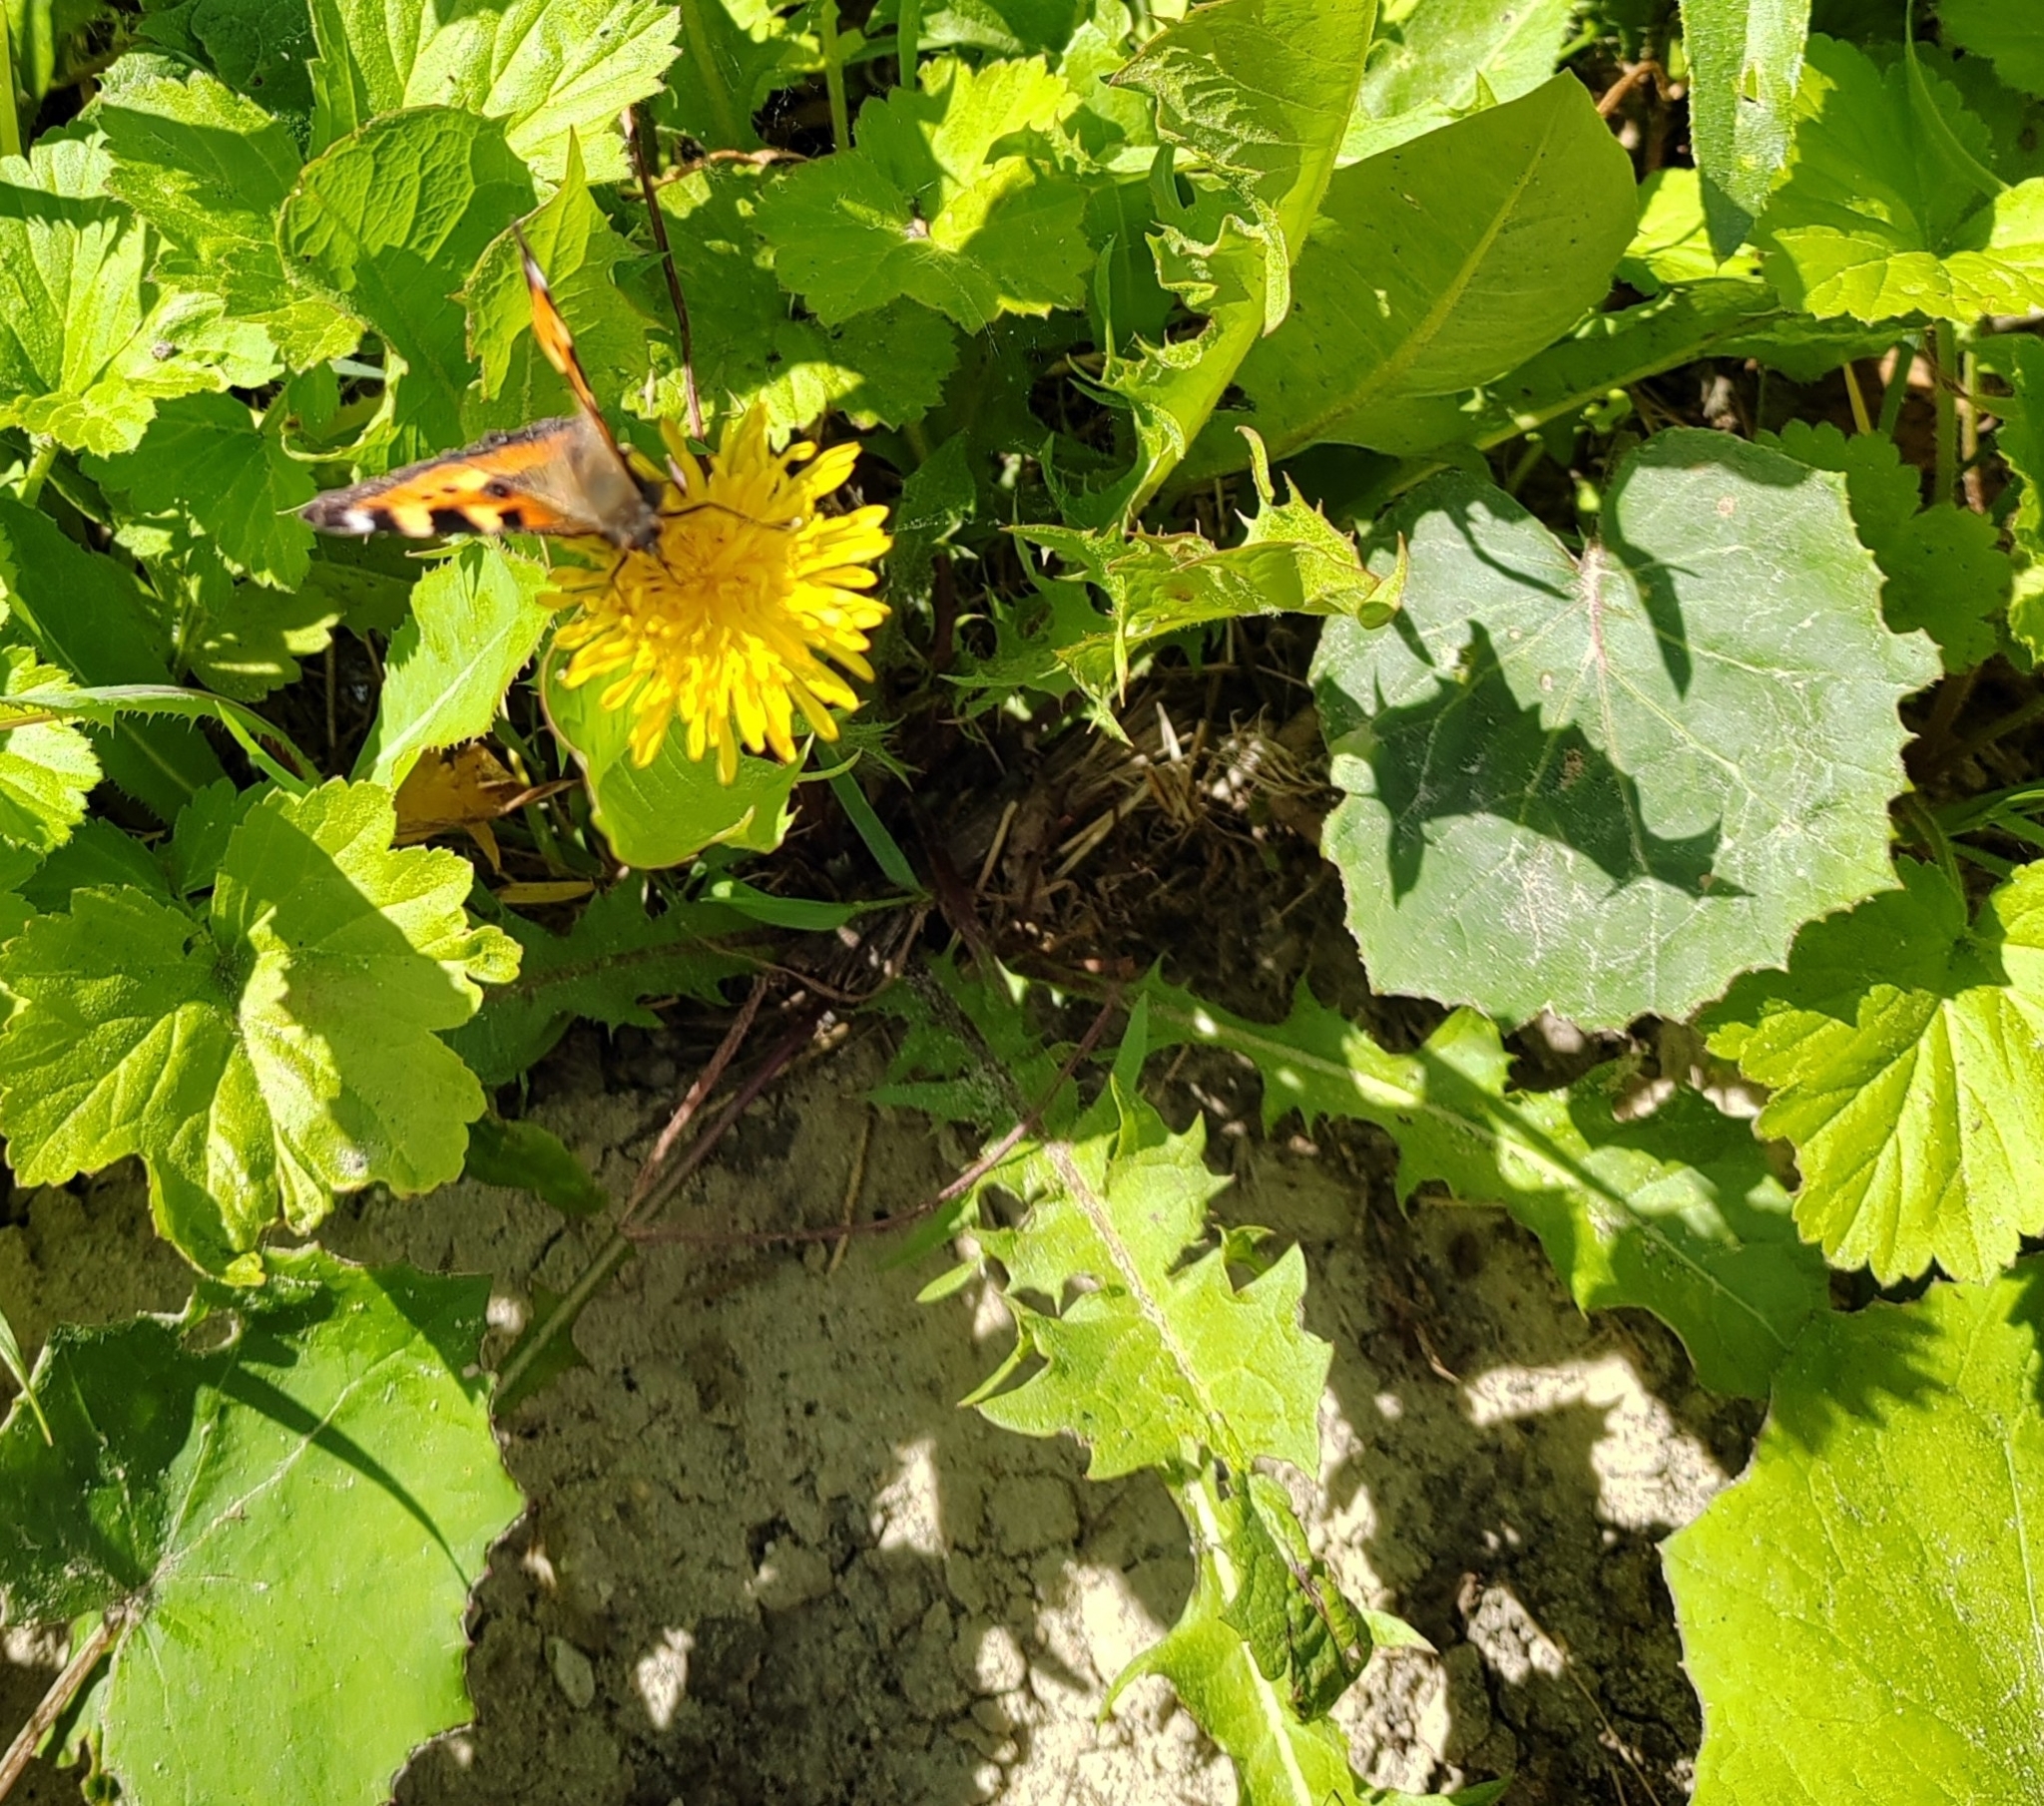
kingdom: Plantae
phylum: Tracheophyta
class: Magnoliopsida
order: Asterales
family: Asteraceae
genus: Taraxacum
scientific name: Taraxacum officinale
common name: Common dandelion
